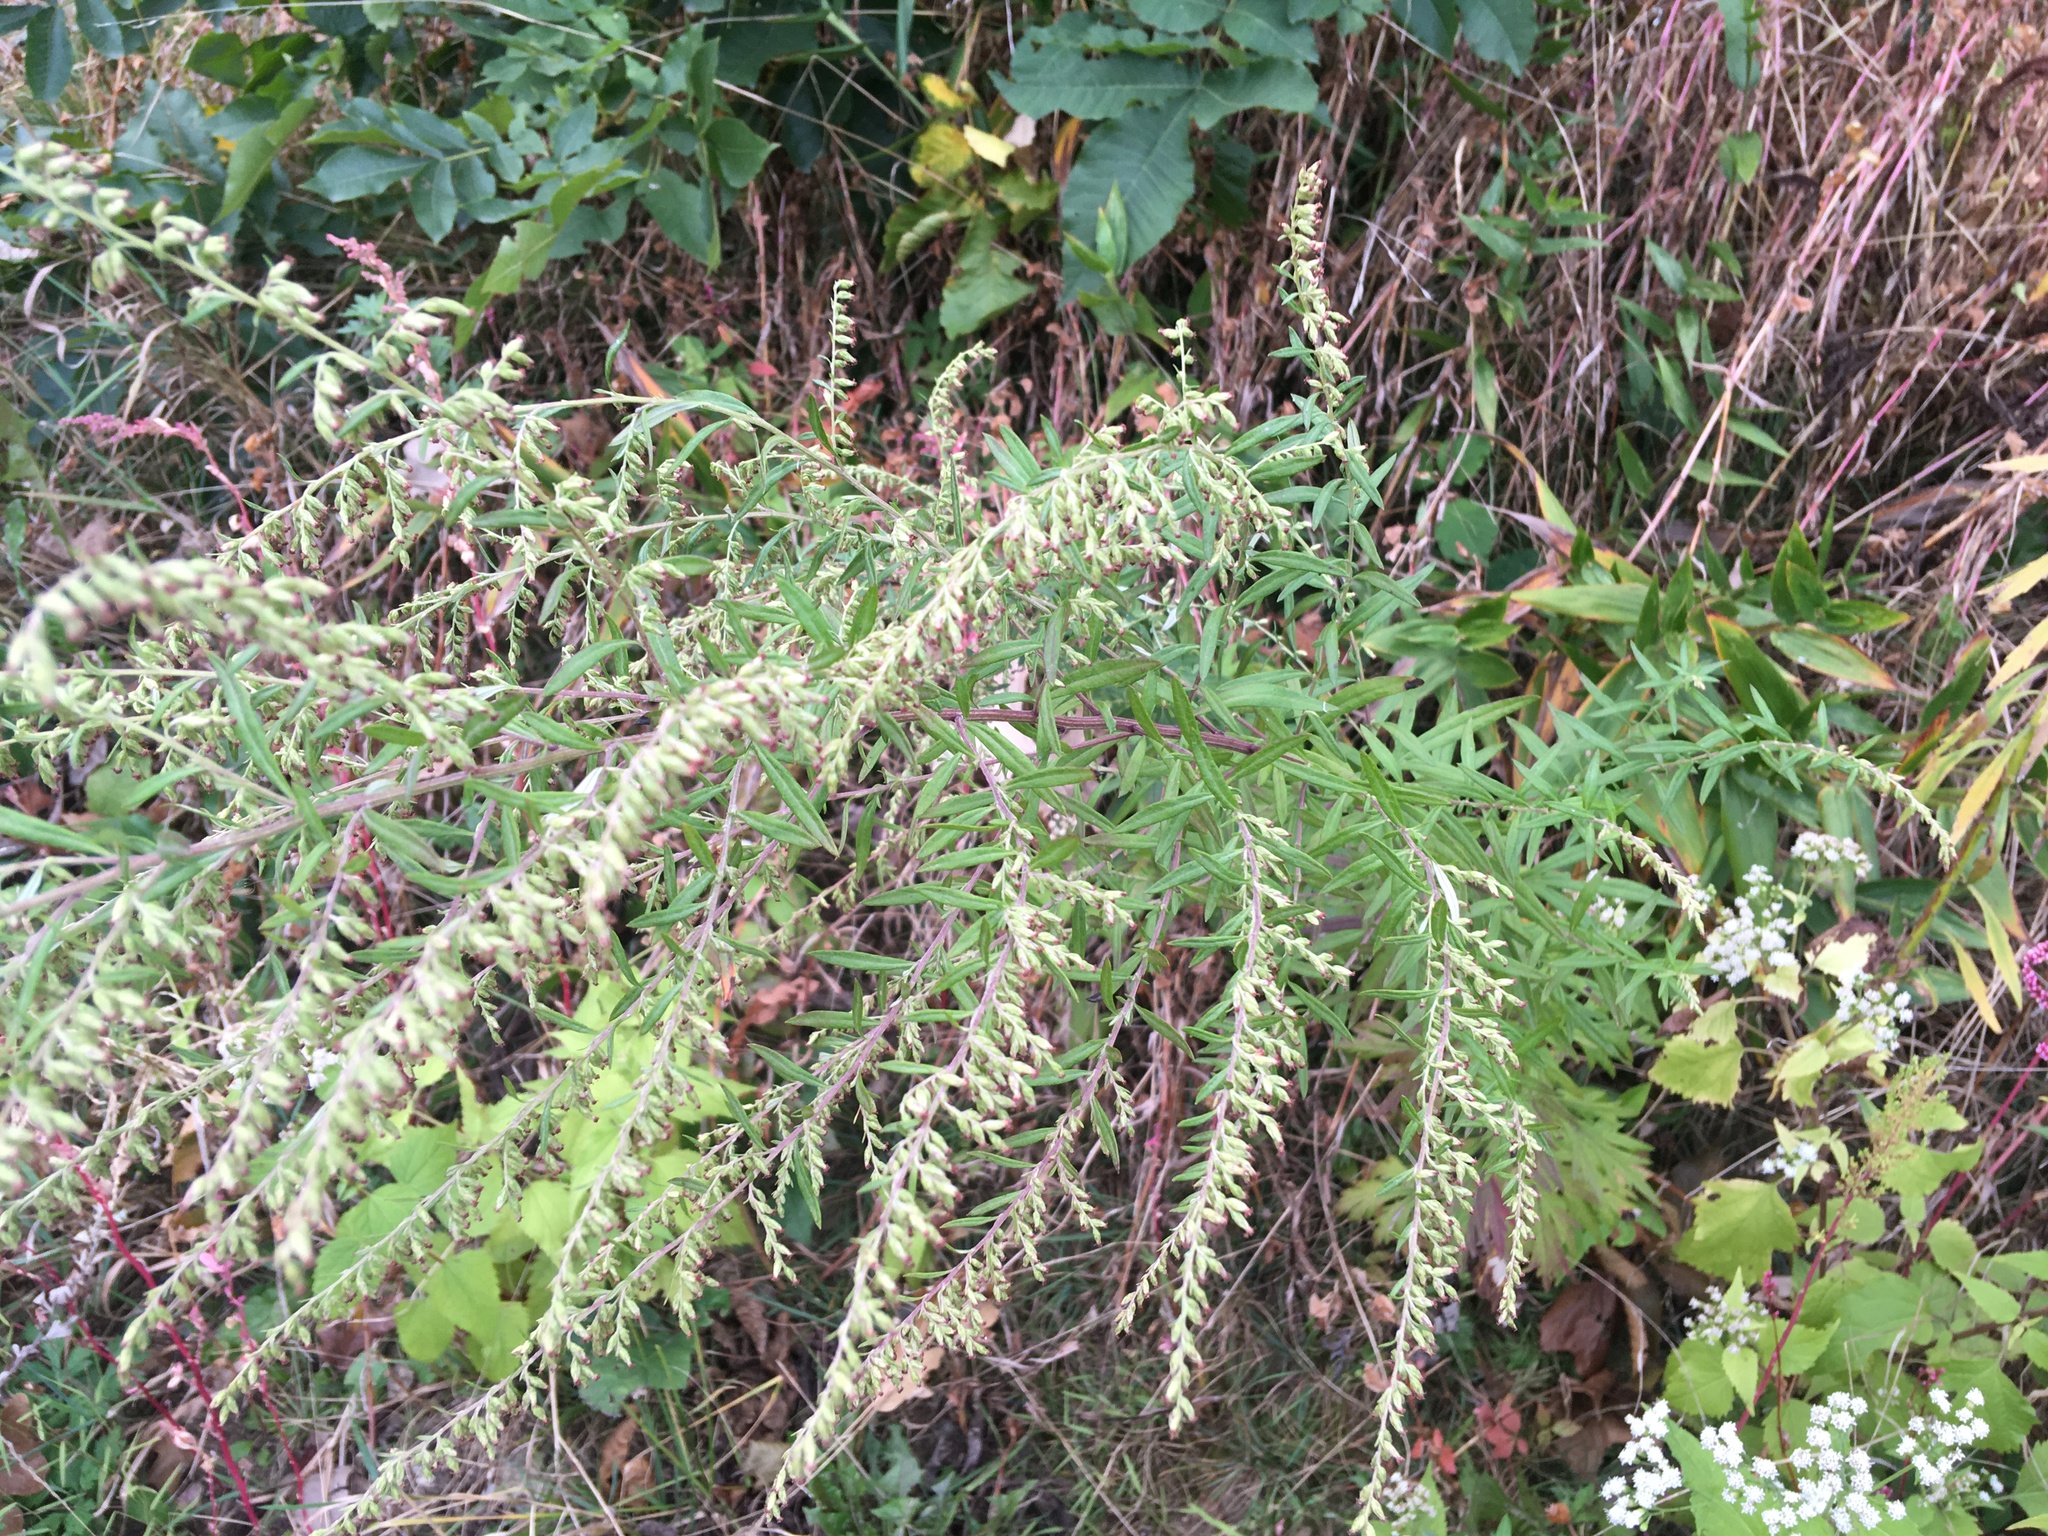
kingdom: Plantae
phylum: Tracheophyta
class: Magnoliopsida
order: Asterales
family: Asteraceae
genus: Artemisia
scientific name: Artemisia vulgaris
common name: Mugwort
